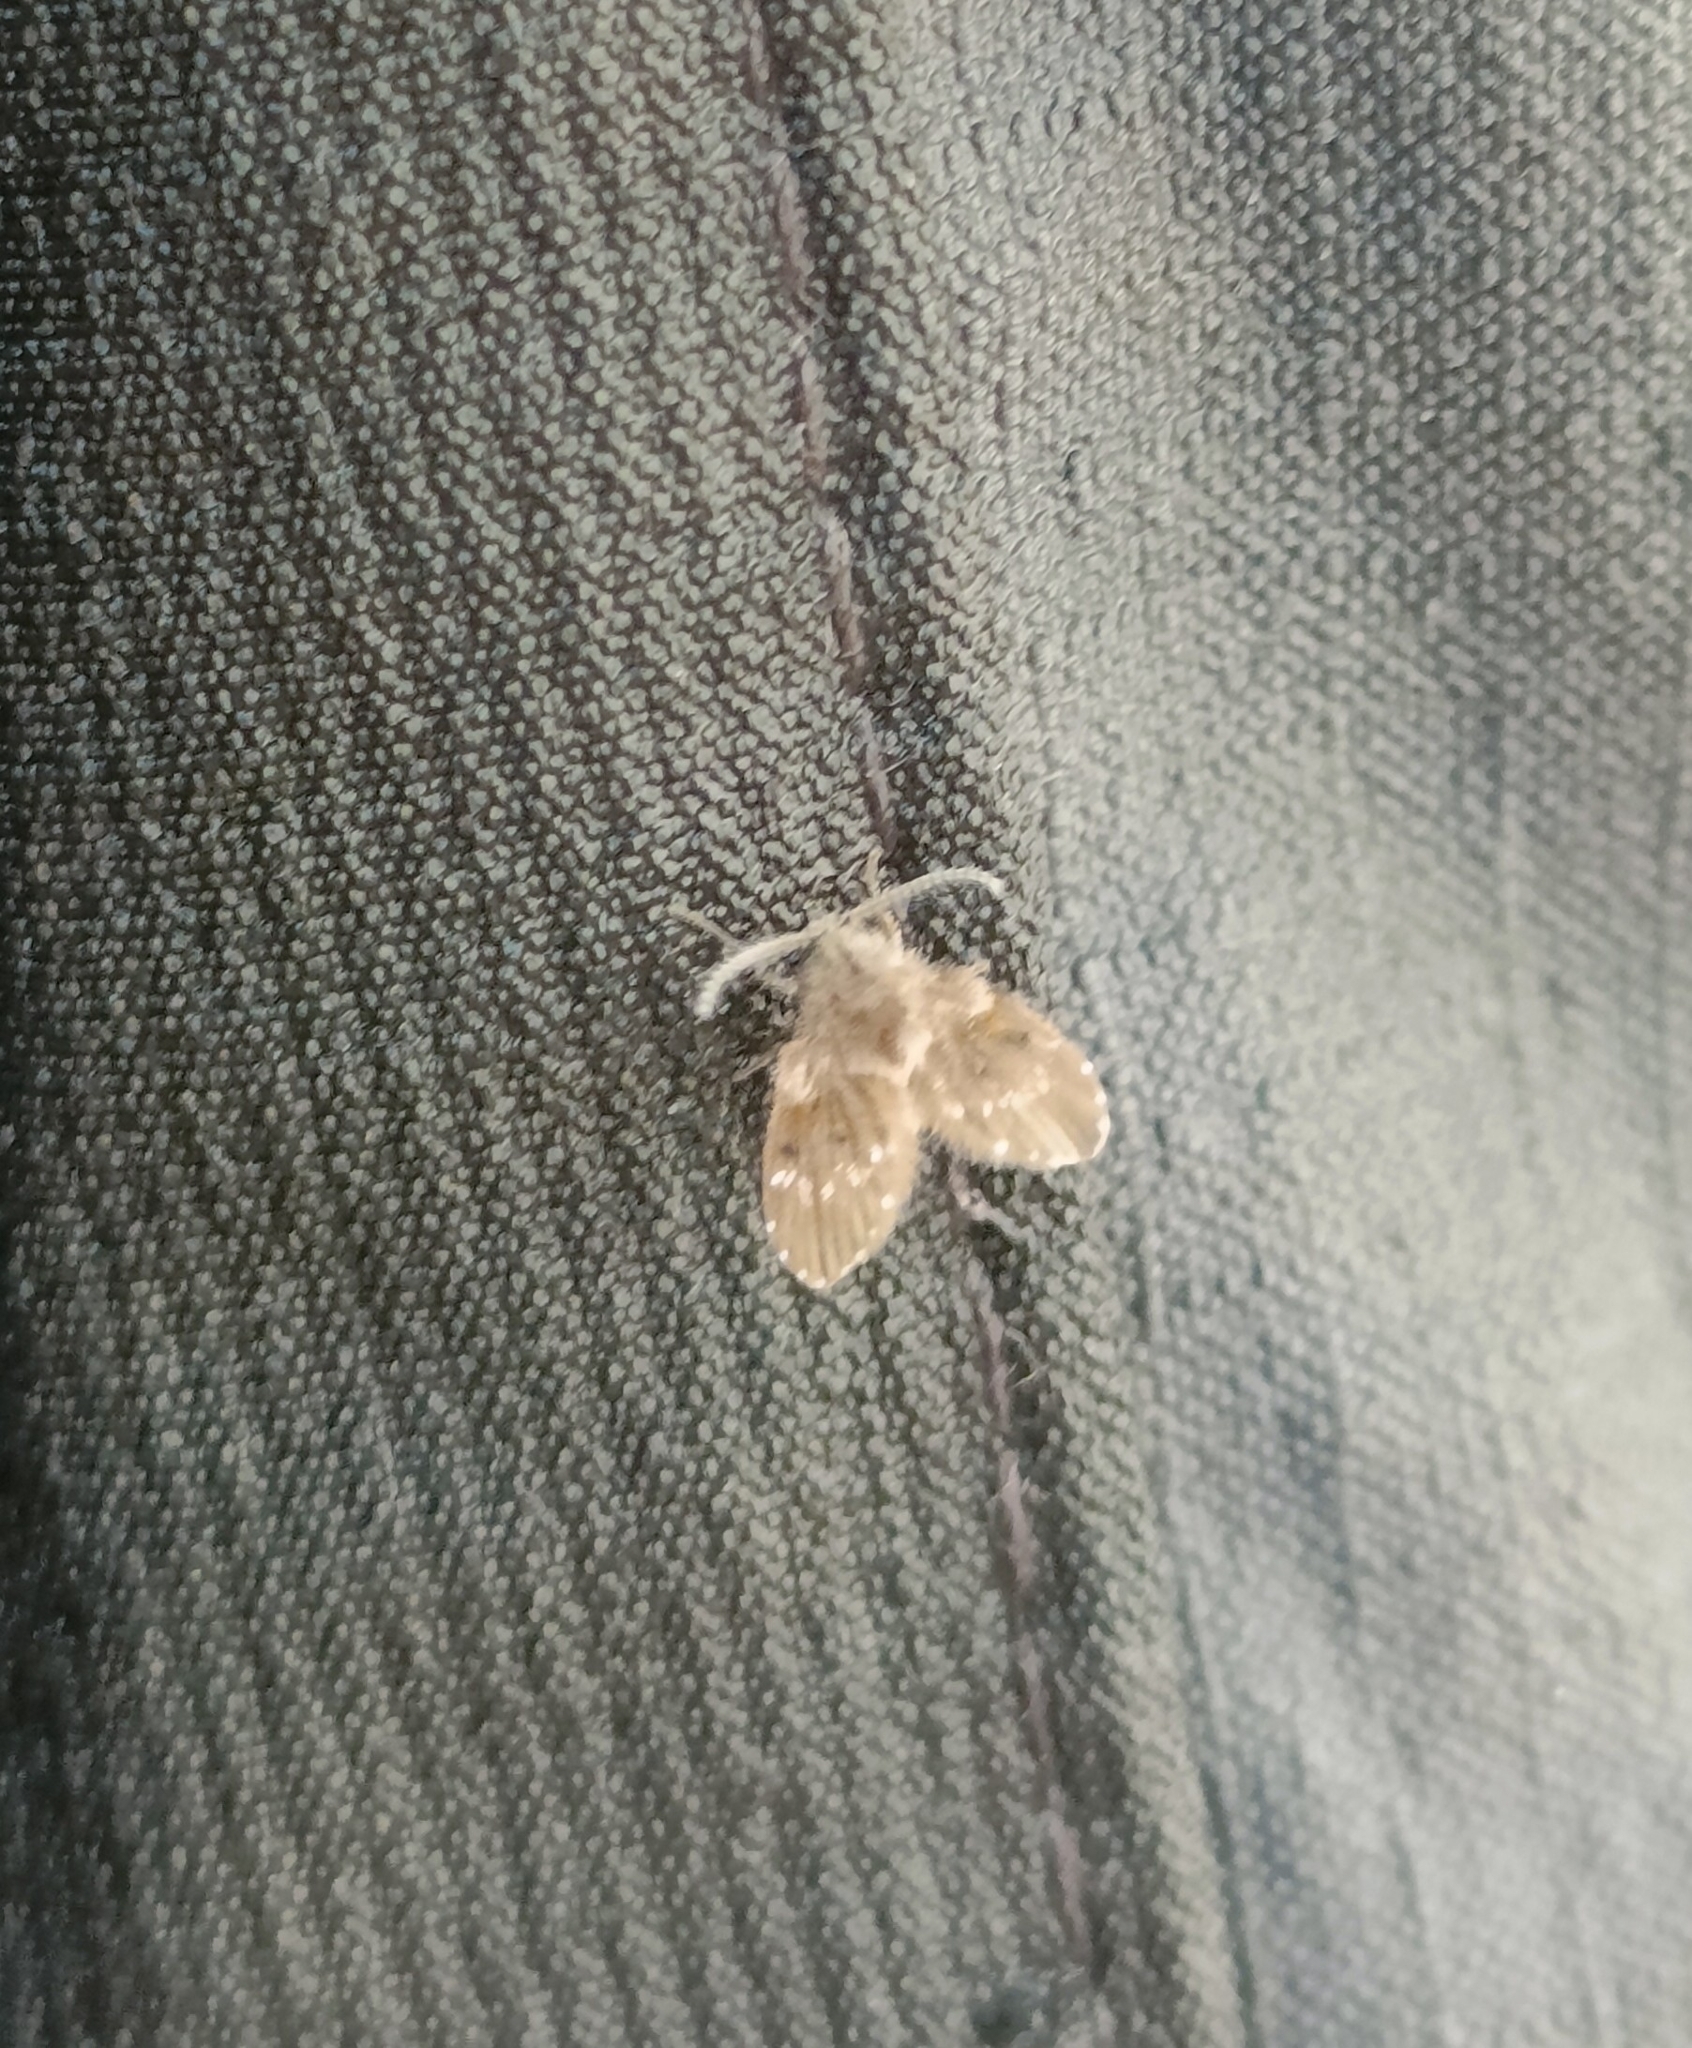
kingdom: Animalia
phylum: Arthropoda
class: Insecta
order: Diptera
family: Psychodidae
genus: Clogmia
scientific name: Clogmia albipunctatus
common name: White-spotted moth fly
